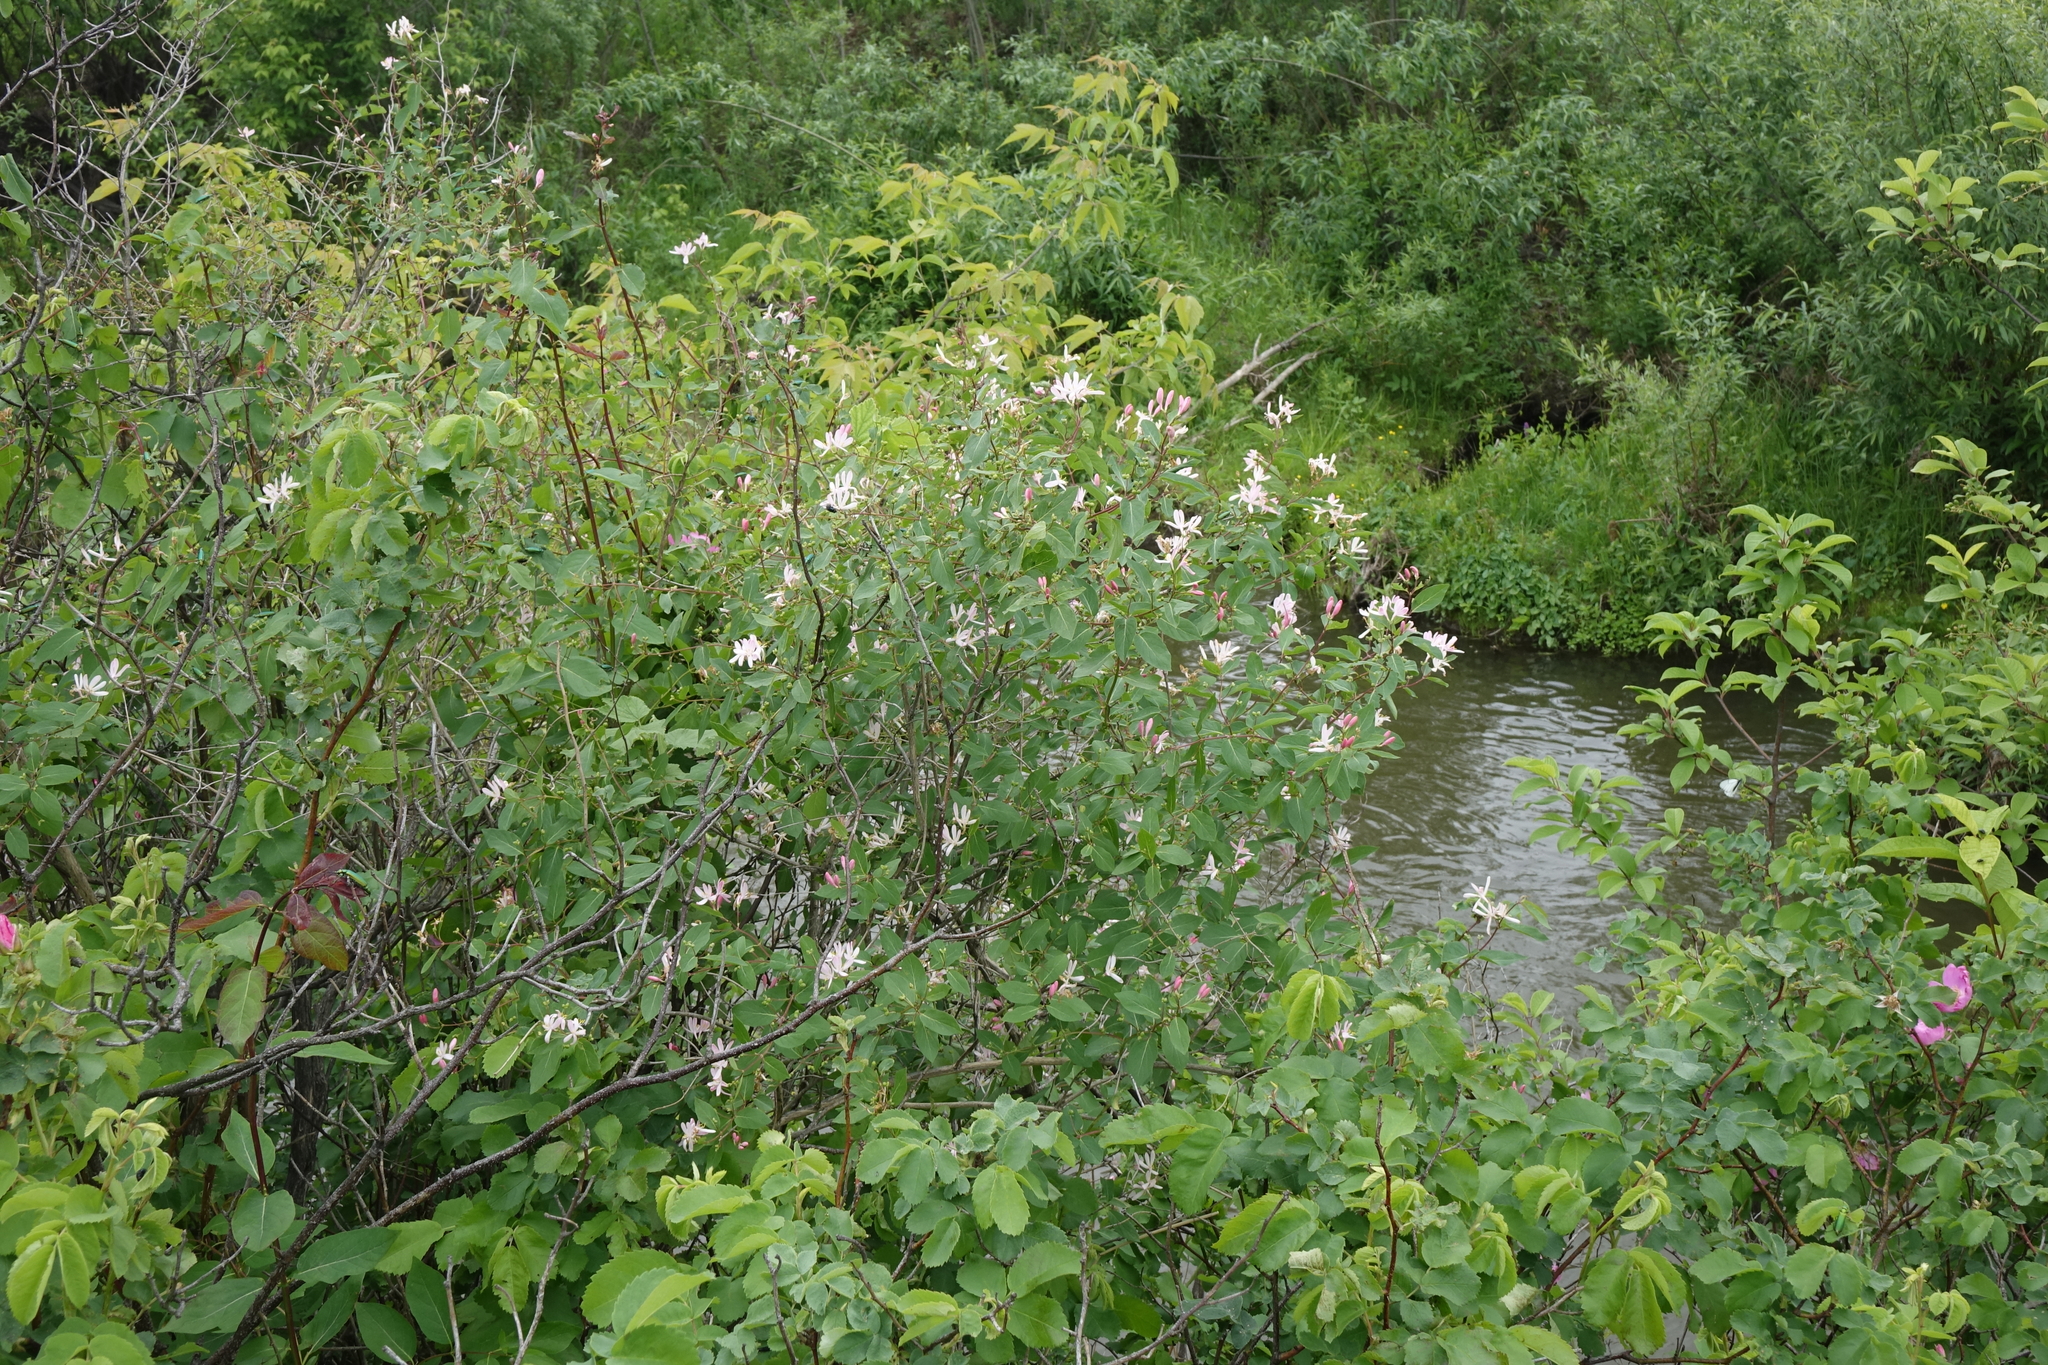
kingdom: Plantae
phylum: Tracheophyta
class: Magnoliopsida
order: Dipsacales
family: Caprifoliaceae
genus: Lonicera
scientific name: Lonicera tatarica
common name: Tatarian honeysuckle
